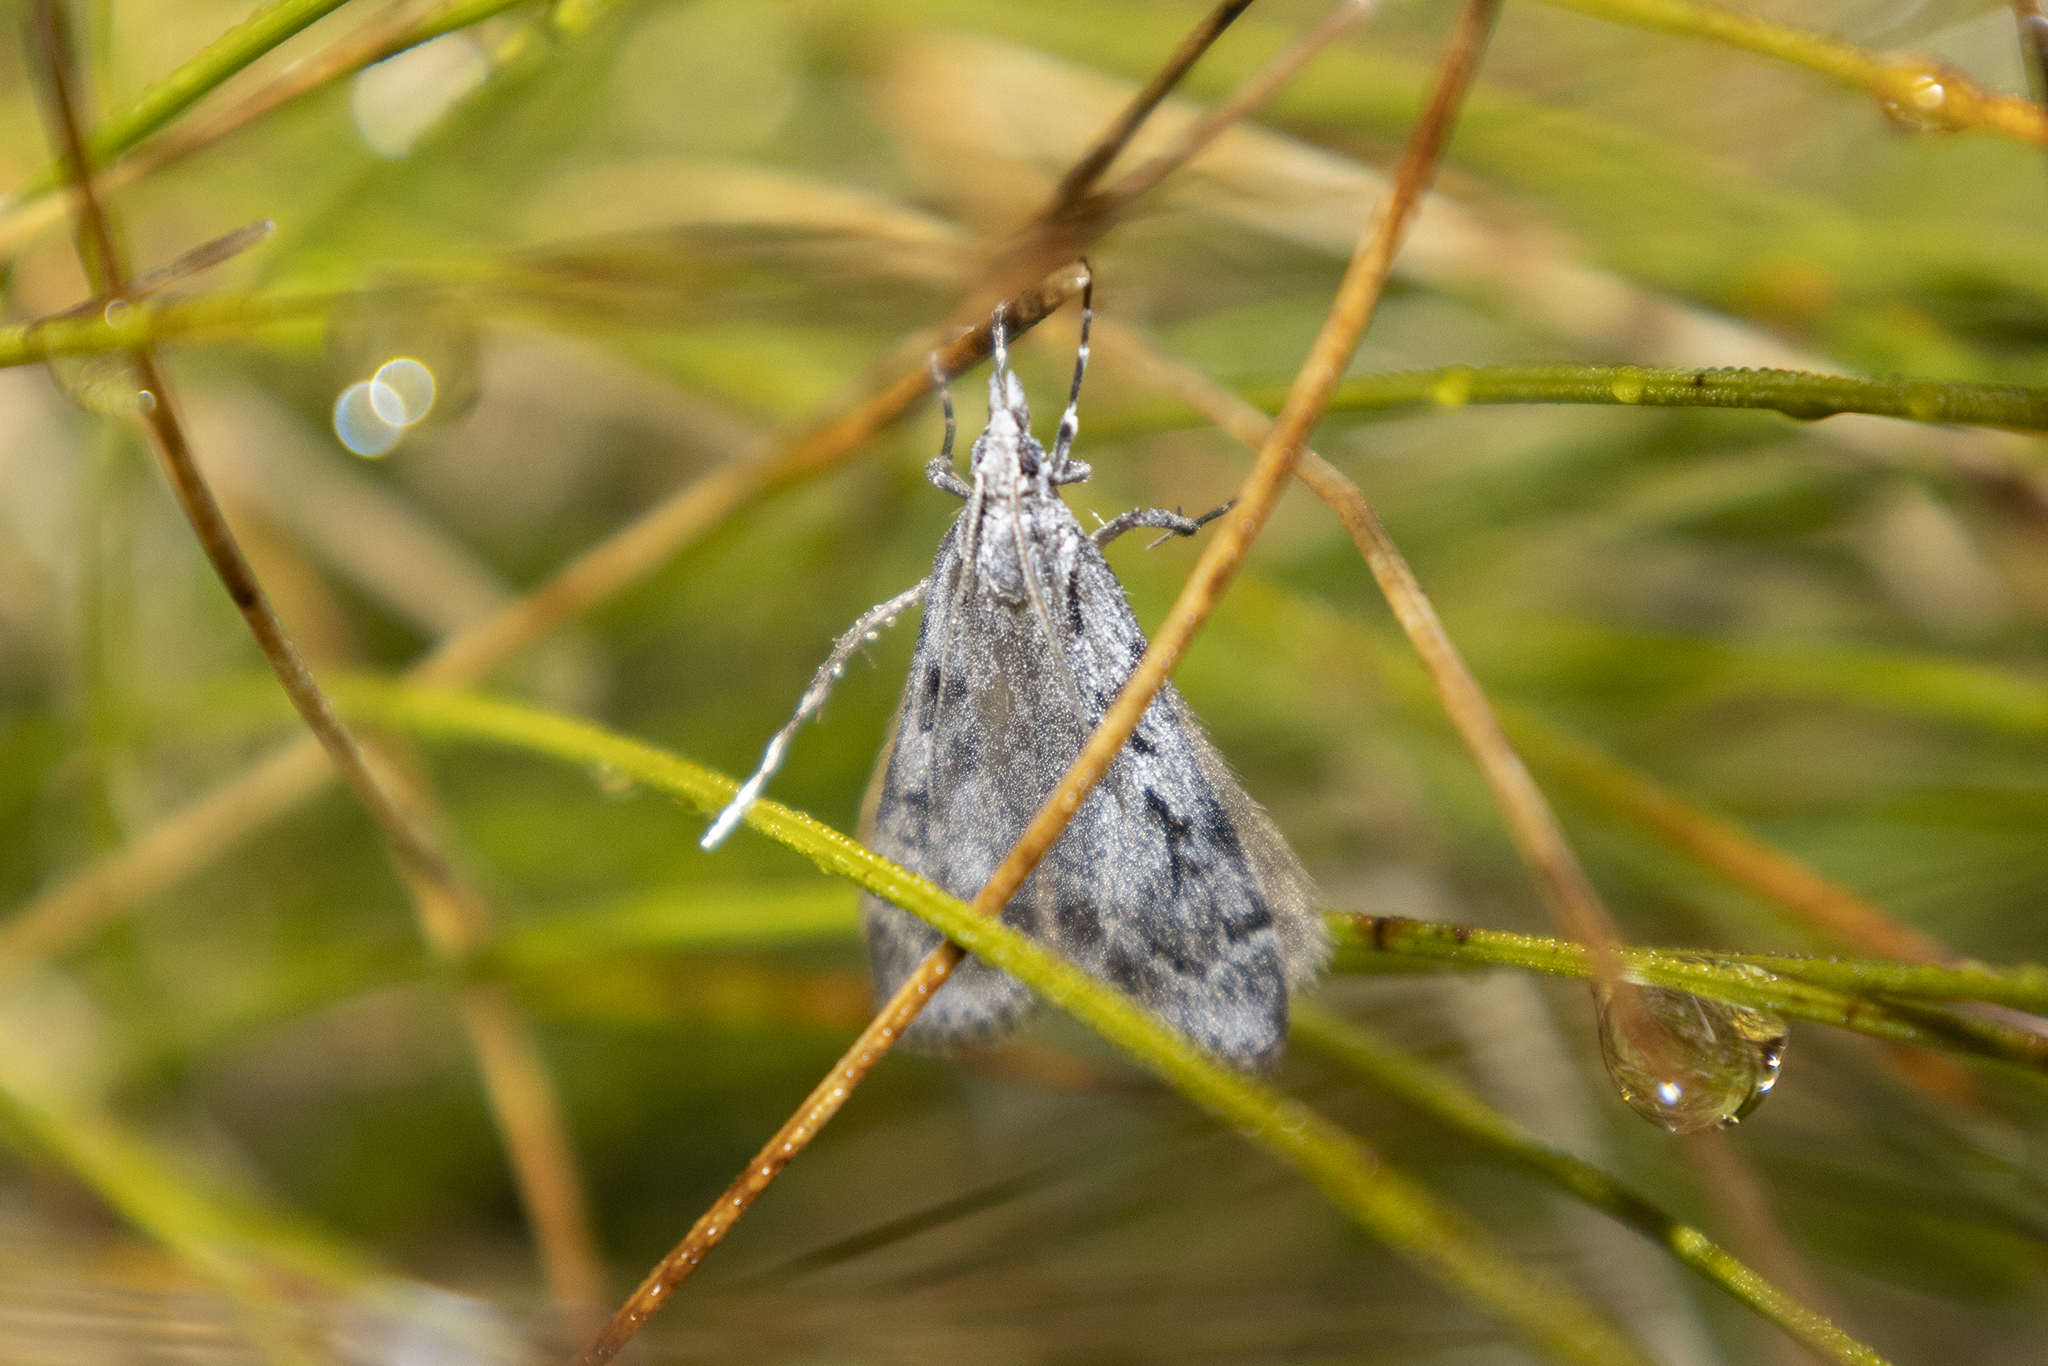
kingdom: Animalia
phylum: Arthropoda
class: Insecta
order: Lepidoptera
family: Crambidae
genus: Scoparia
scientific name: Scoparia halopis
